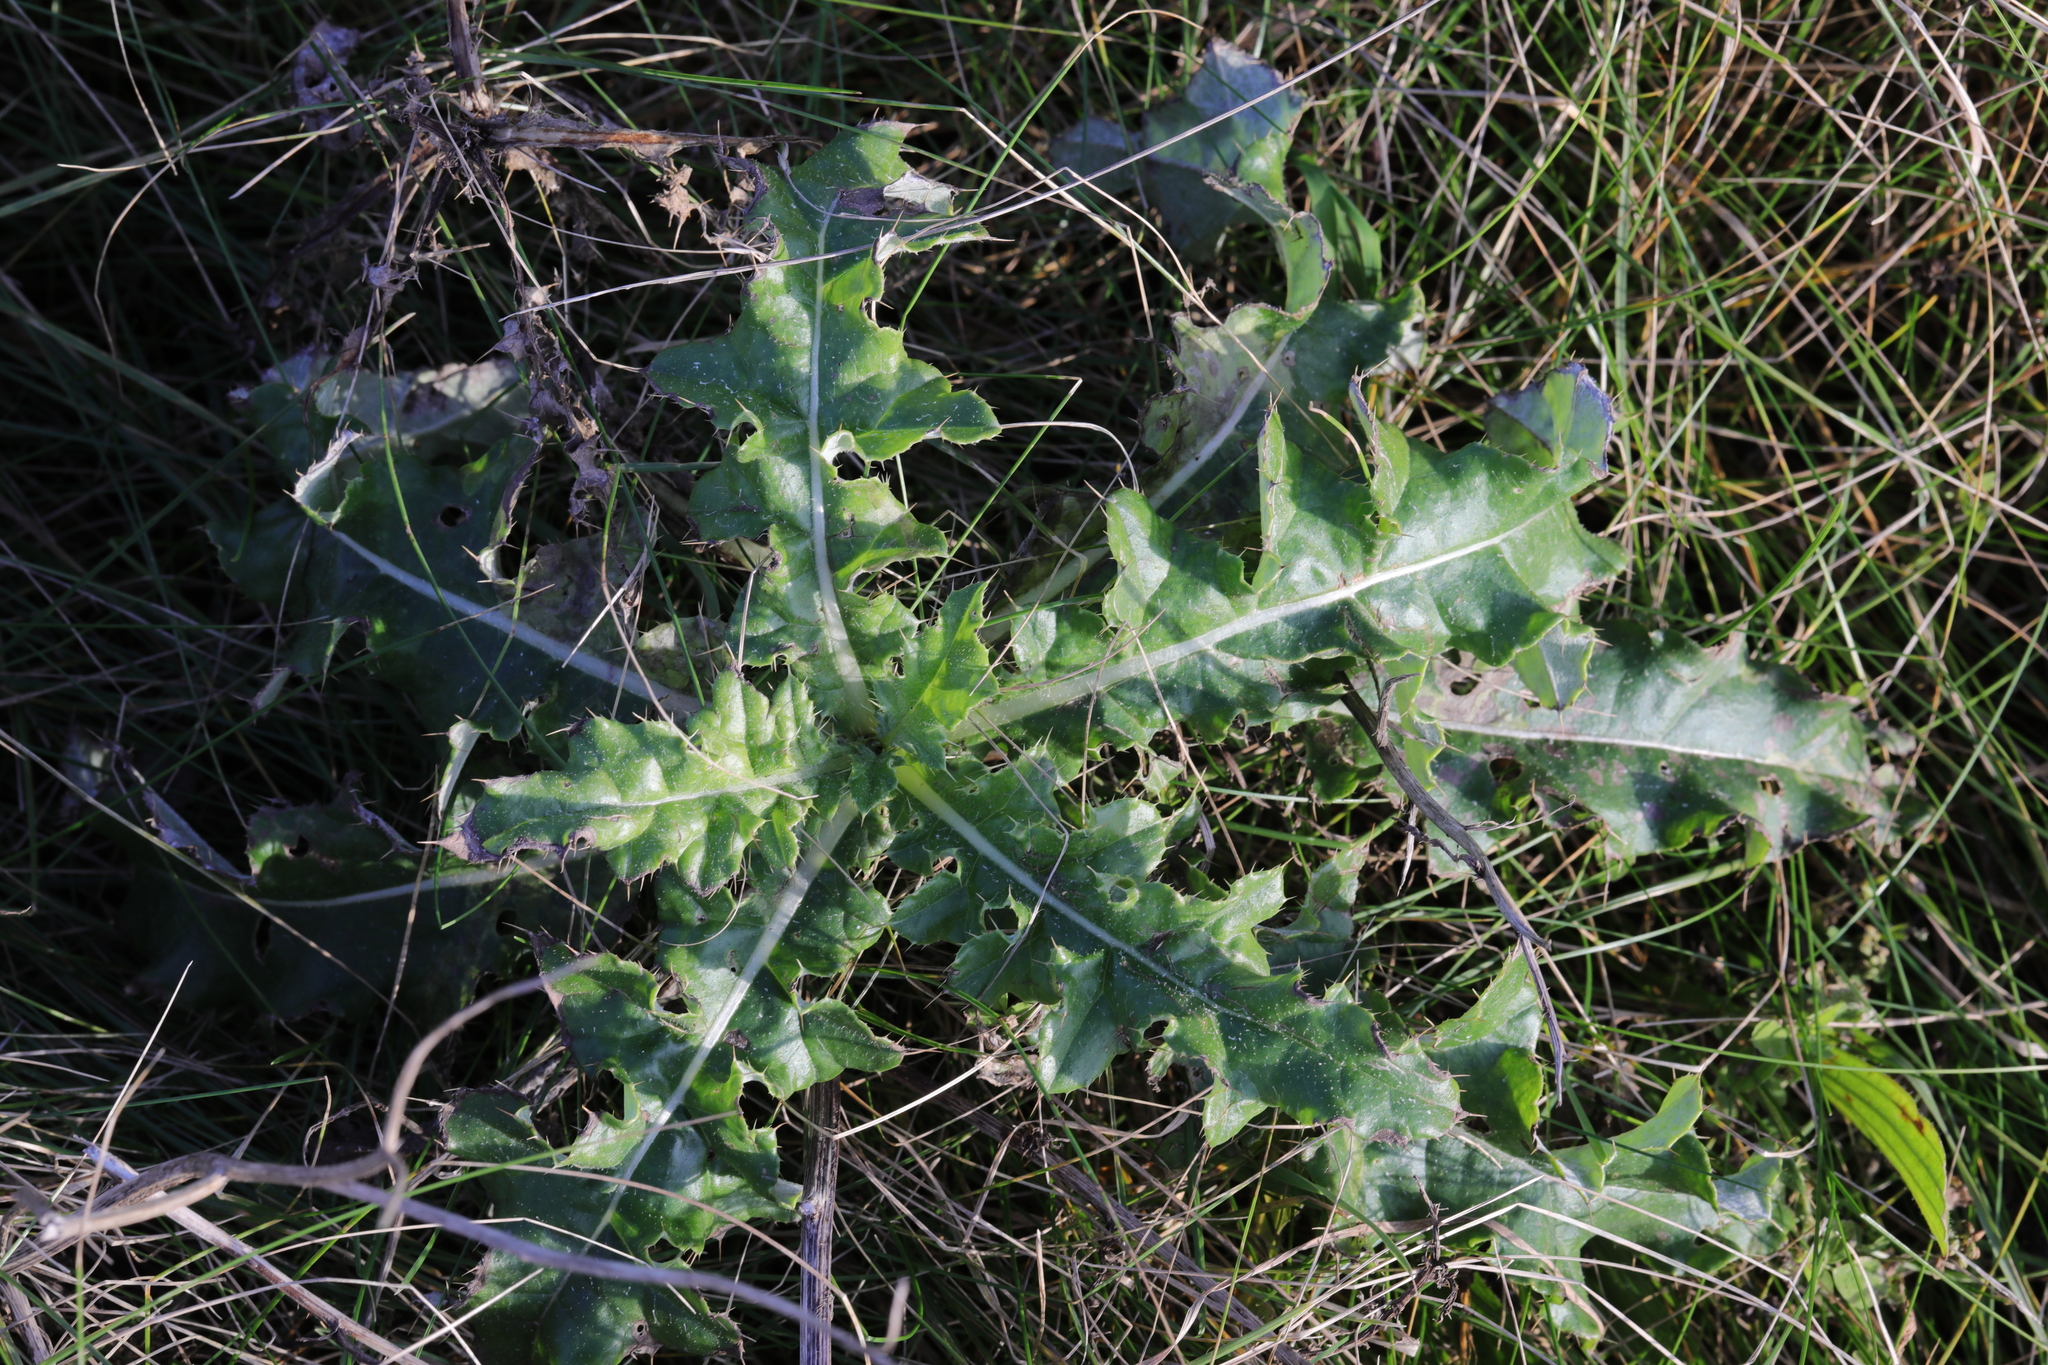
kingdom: Plantae
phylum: Tracheophyta
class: Magnoliopsida
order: Asterales
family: Asteraceae
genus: Cirsium
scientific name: Cirsium arvense
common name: Creeping thistle
